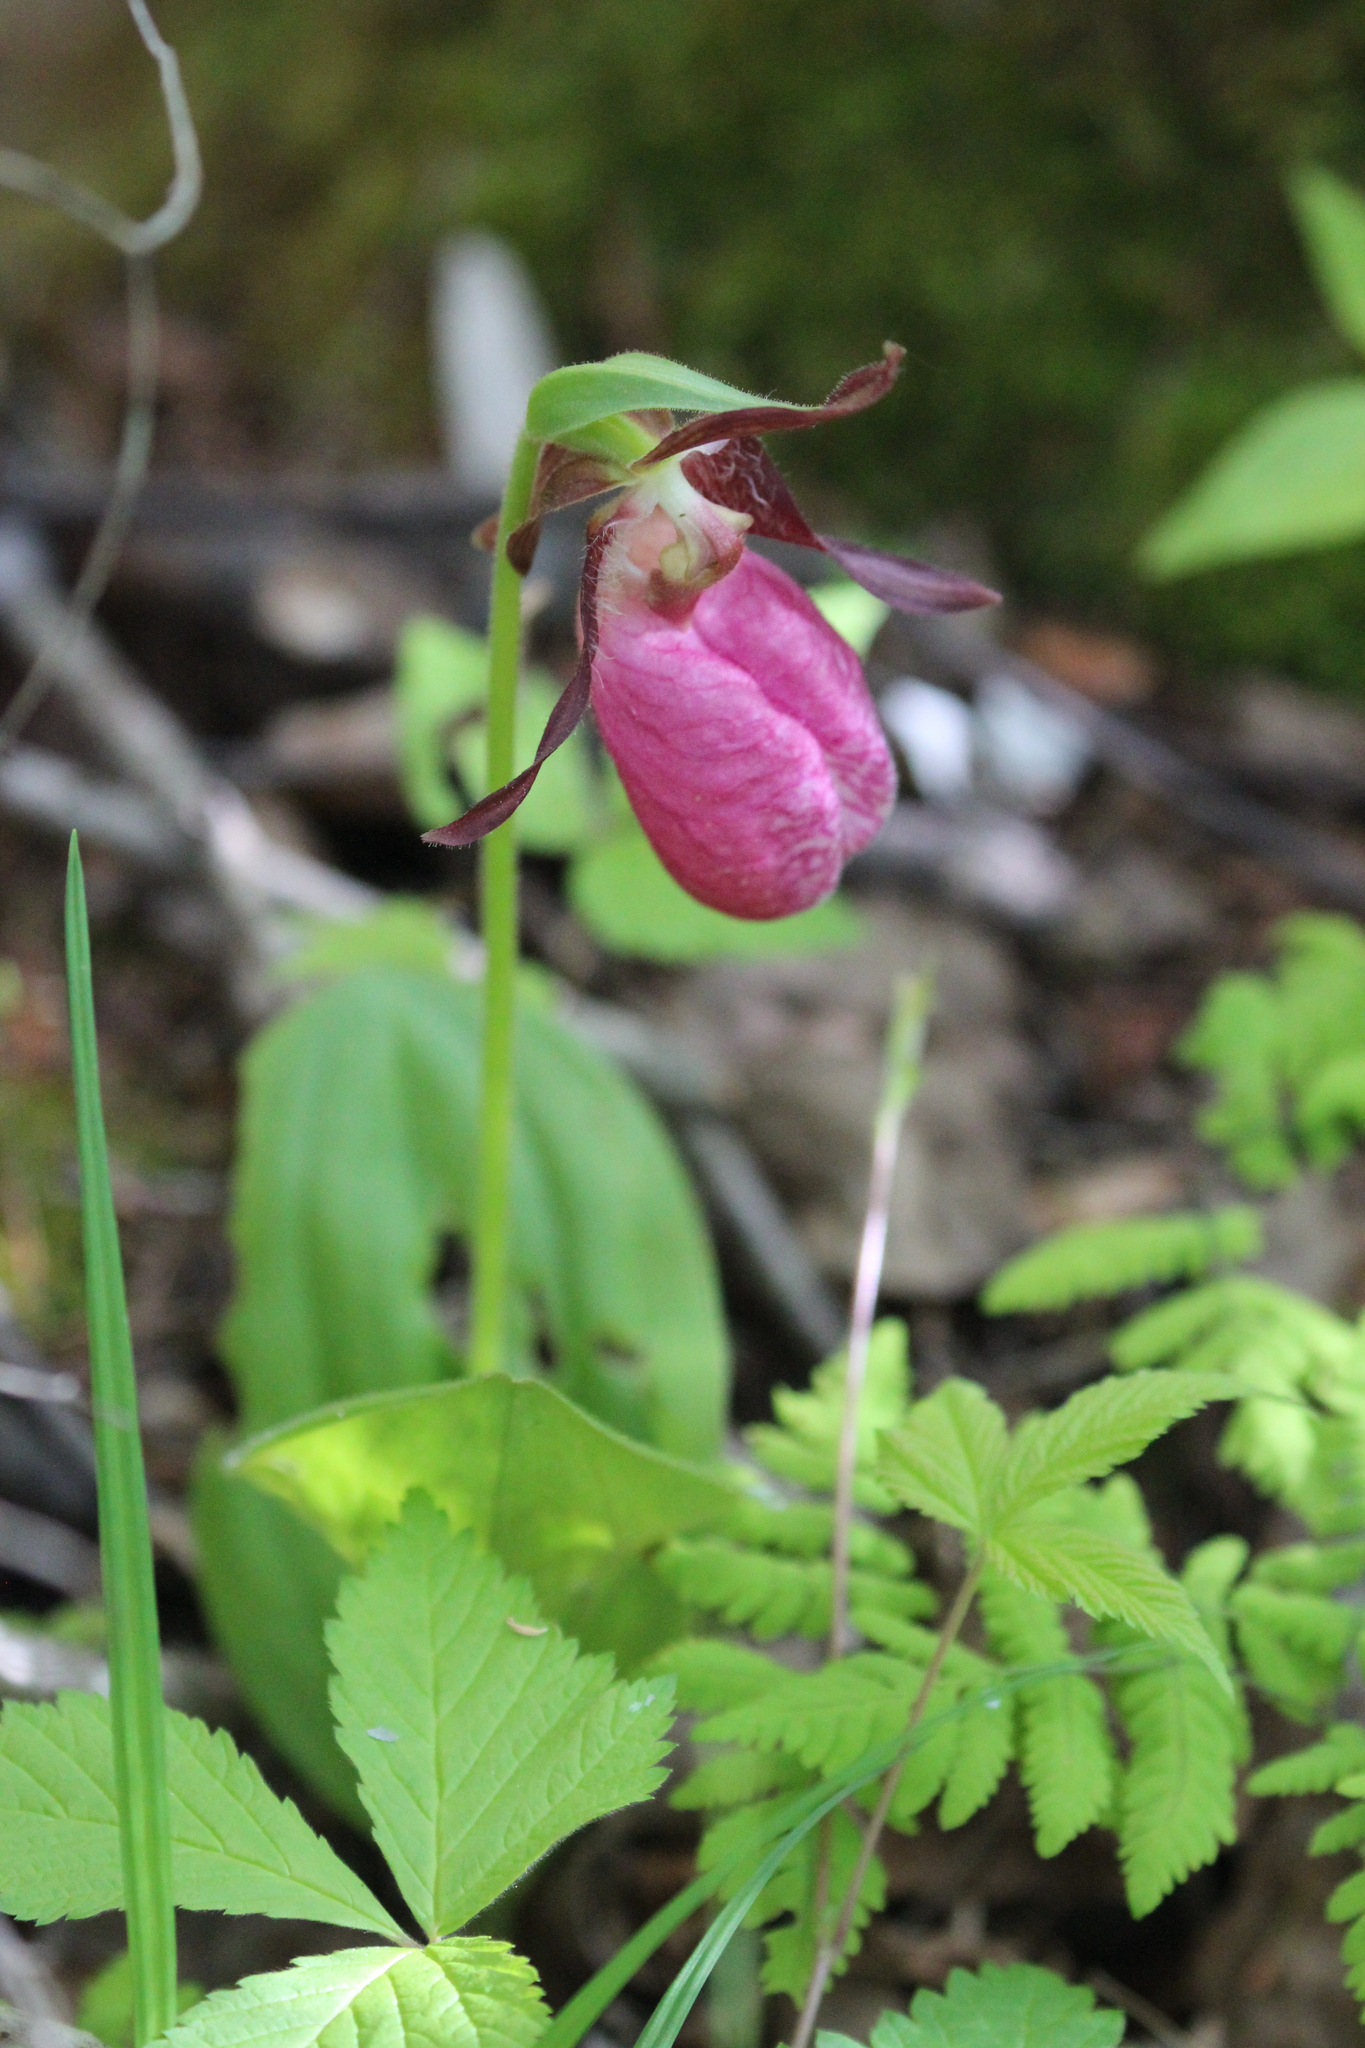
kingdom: Plantae
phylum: Tracheophyta
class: Liliopsida
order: Asparagales
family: Orchidaceae
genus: Cypripedium
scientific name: Cypripedium acaule
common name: Pink lady's-slipper
